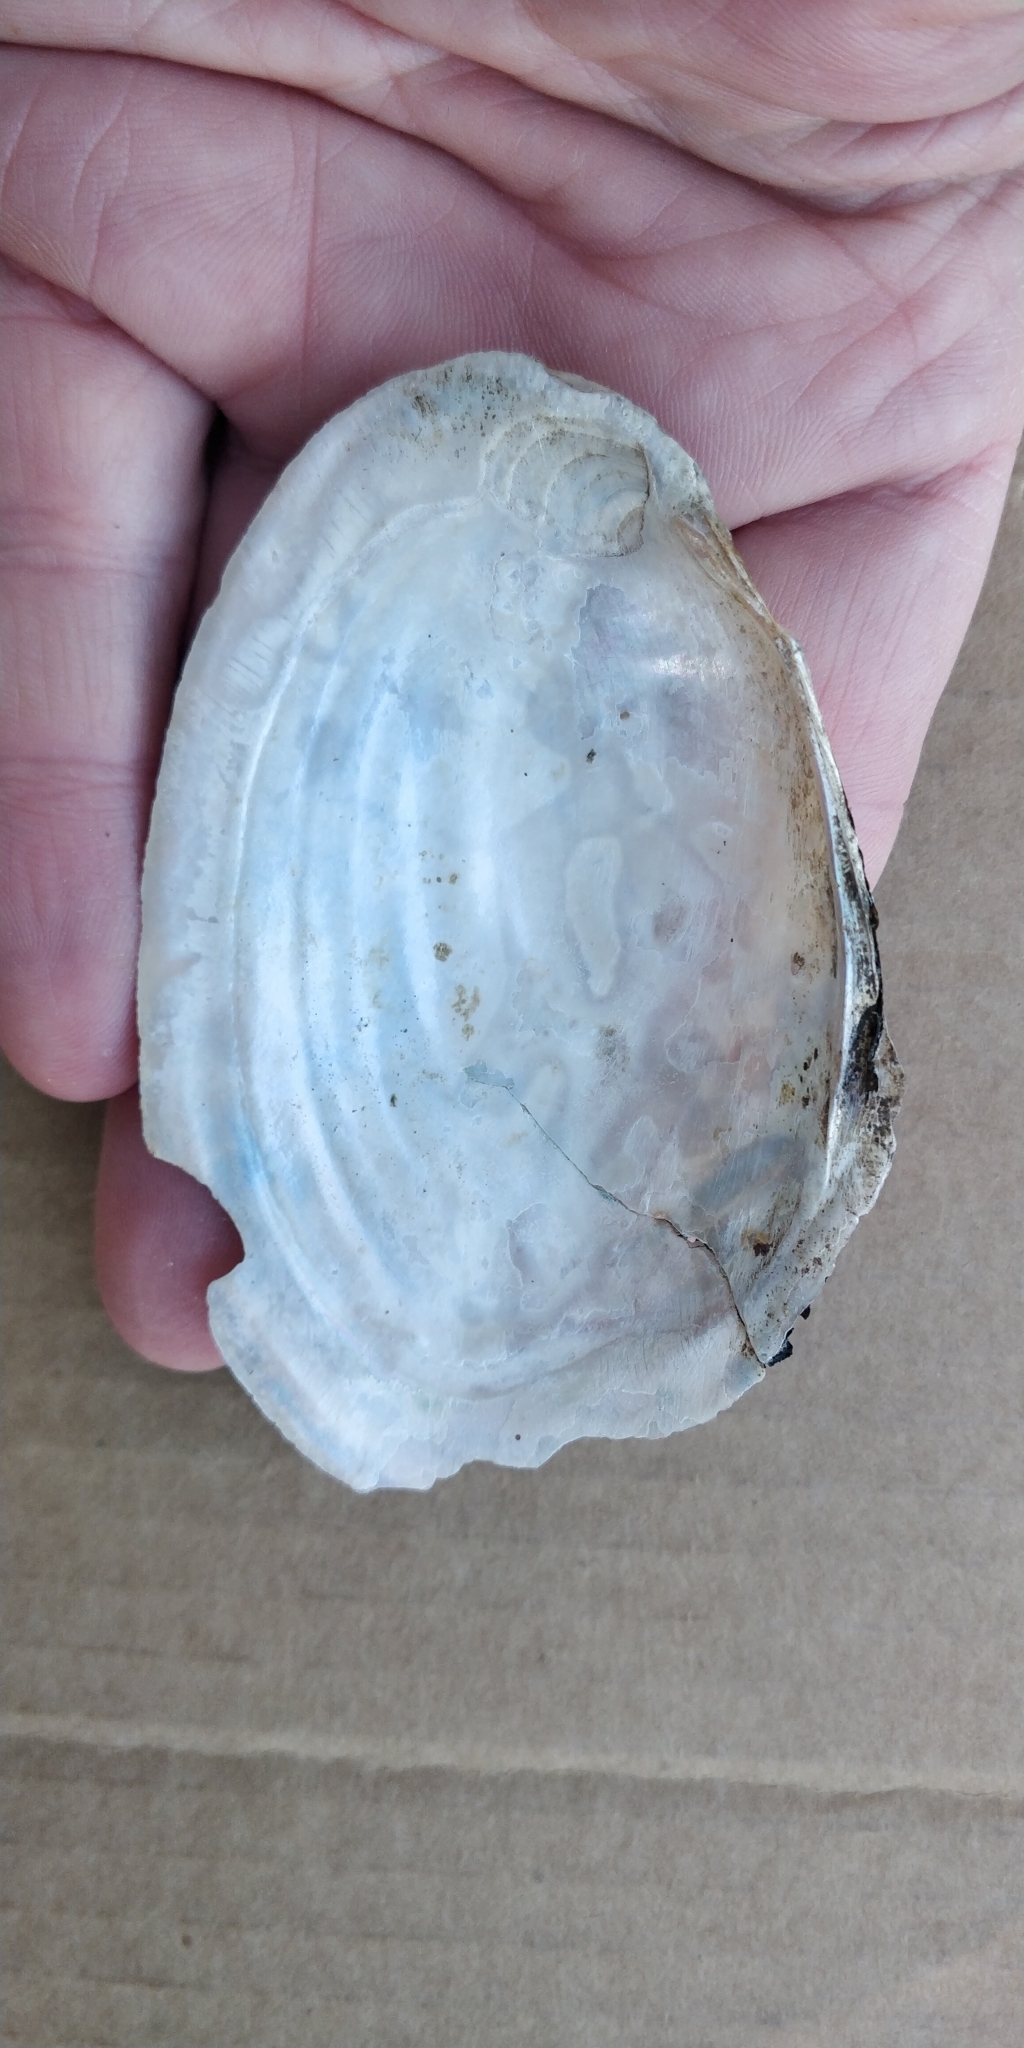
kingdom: Animalia
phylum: Mollusca
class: Bivalvia
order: Unionida
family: Unionidae
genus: Potamilus
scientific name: Potamilus ohiensis
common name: Pink papershell
